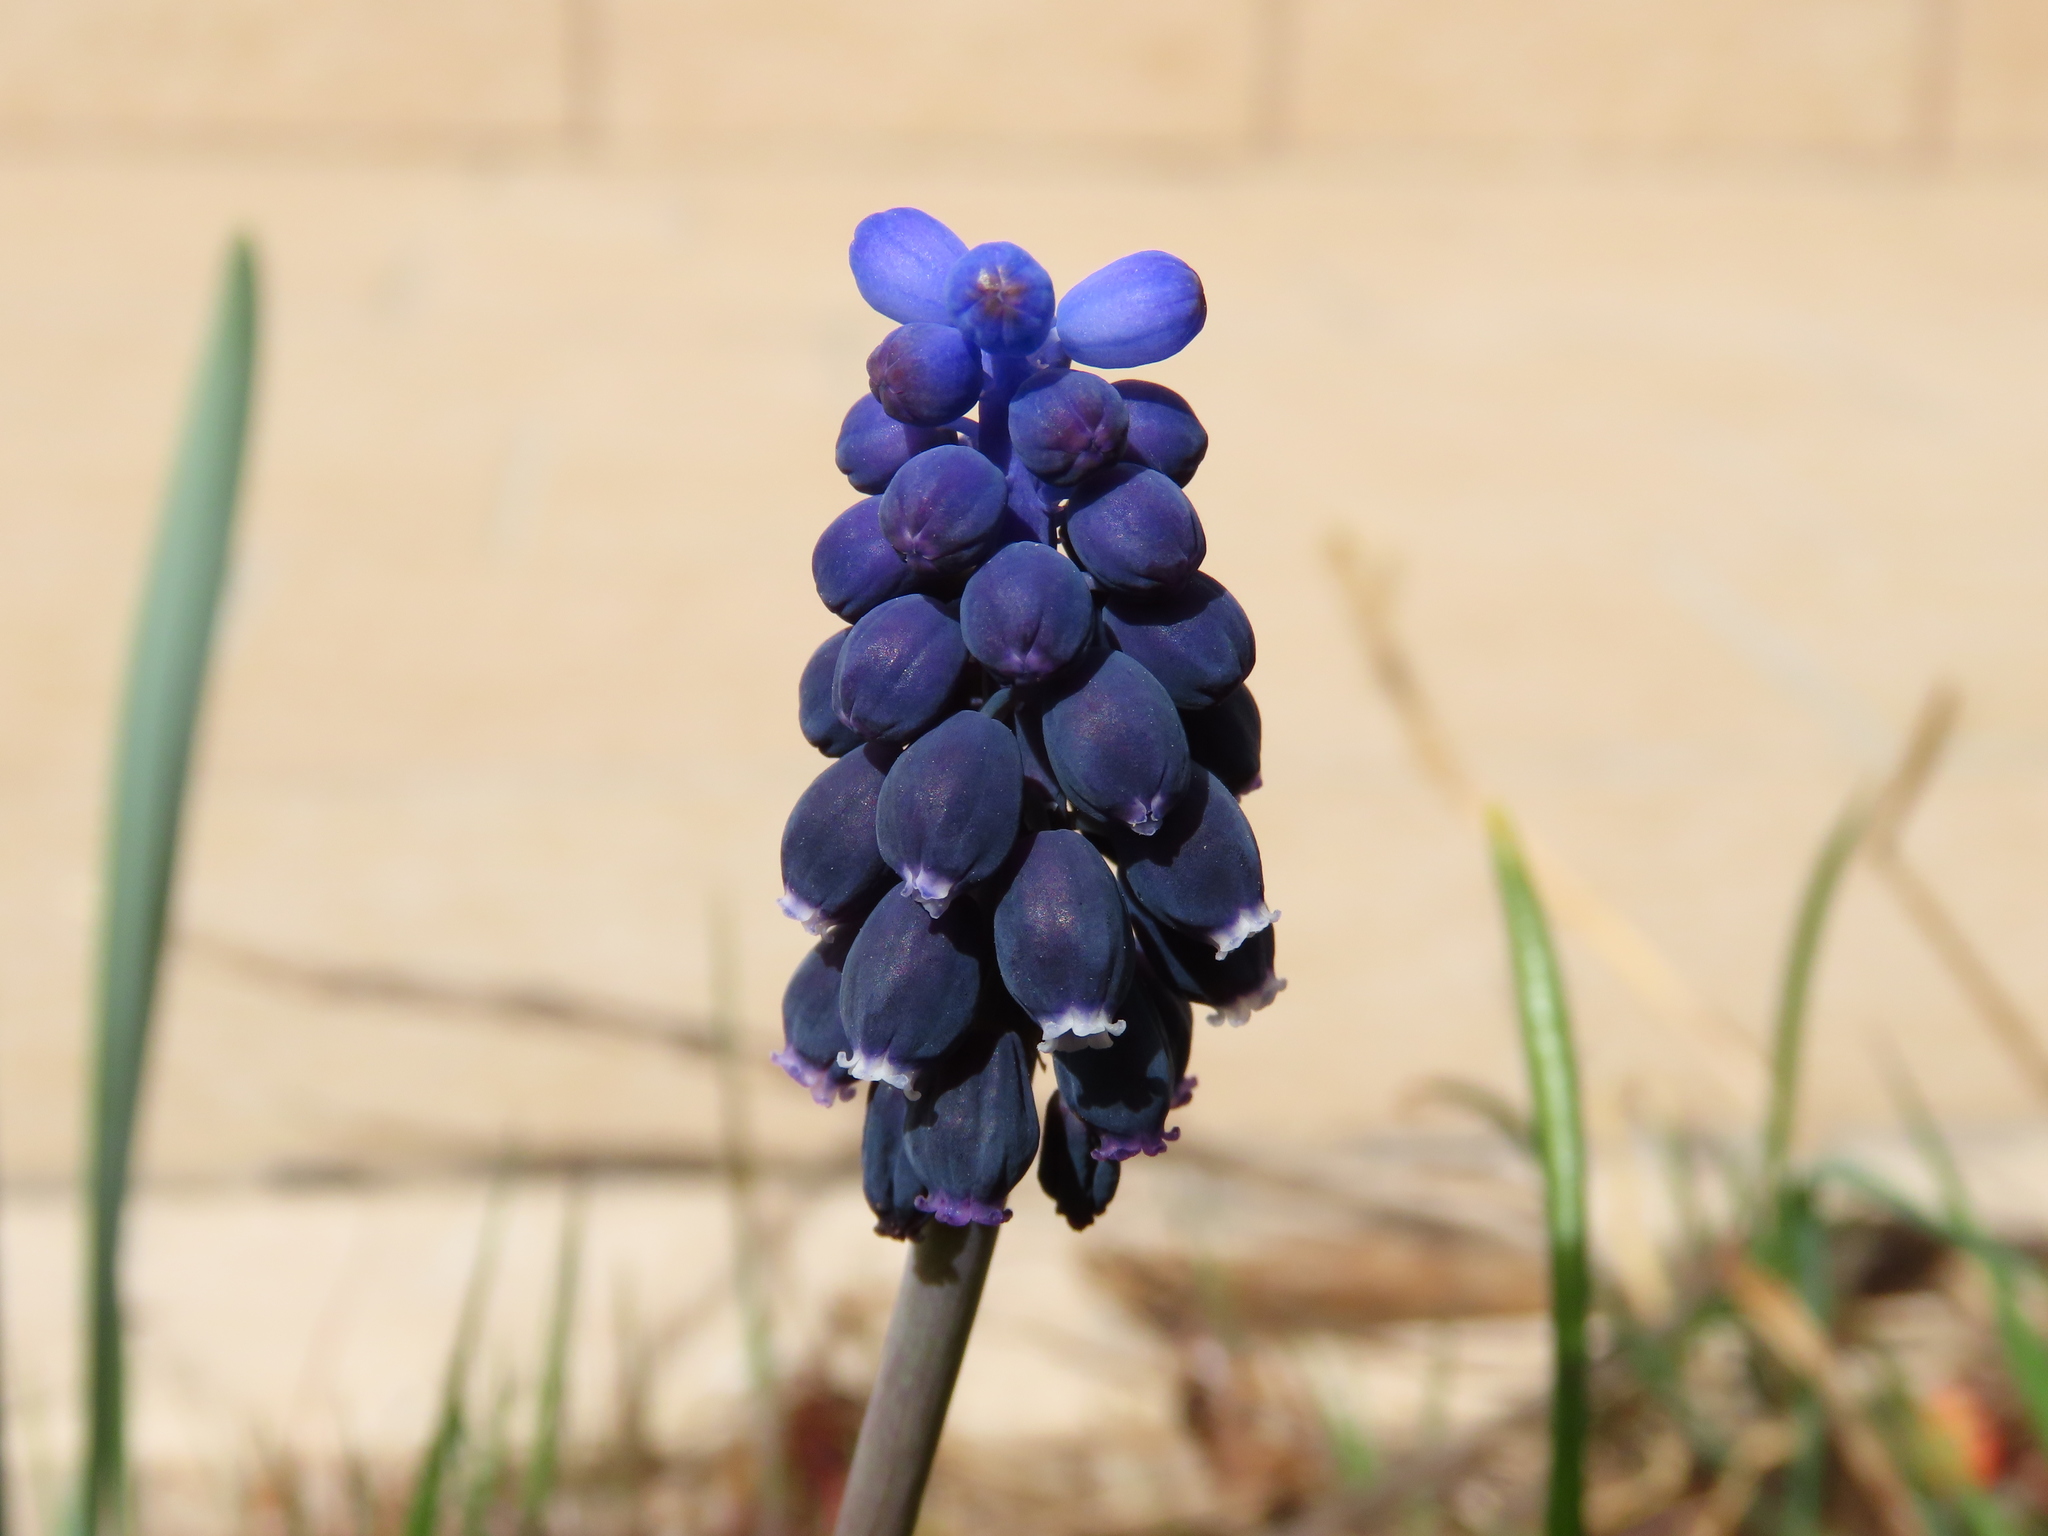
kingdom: Plantae
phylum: Tracheophyta
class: Liliopsida
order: Asparagales
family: Asparagaceae
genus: Muscari
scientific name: Muscari neglectum
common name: Grape-hyacinth
